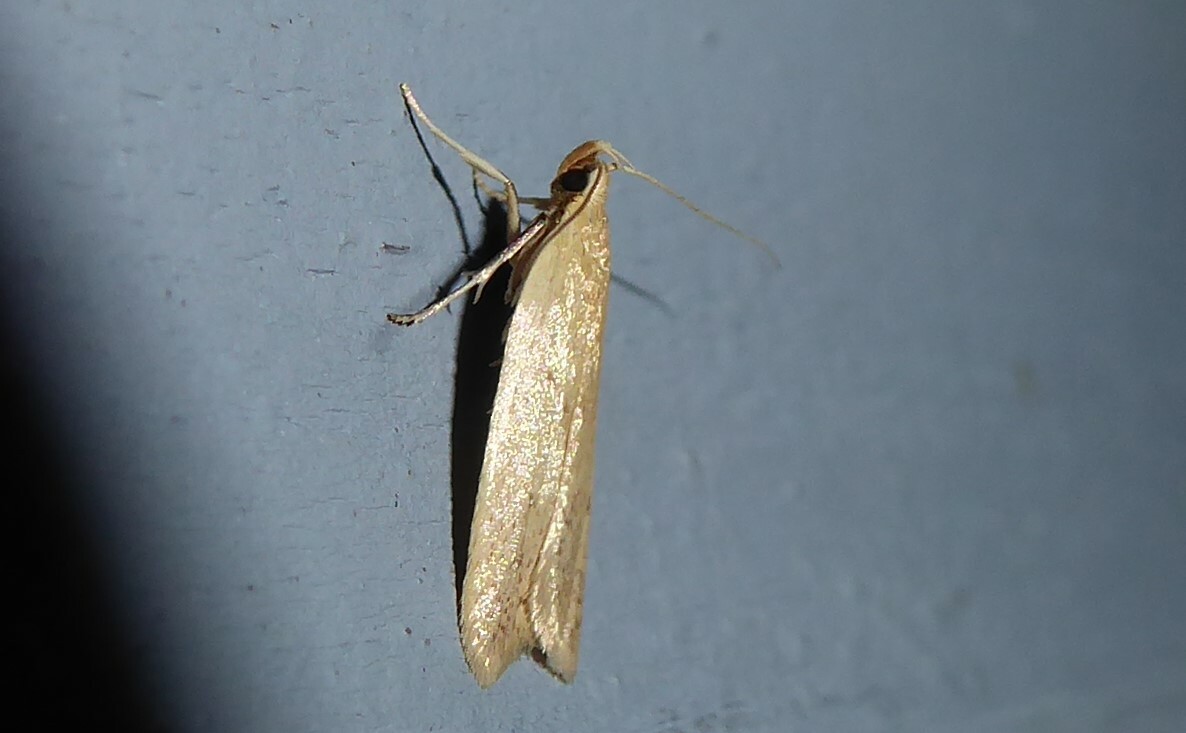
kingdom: Animalia
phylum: Arthropoda
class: Insecta
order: Lepidoptera
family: Oecophoridae
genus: Gymnobathra
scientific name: Gymnobathra sarcoxantha
